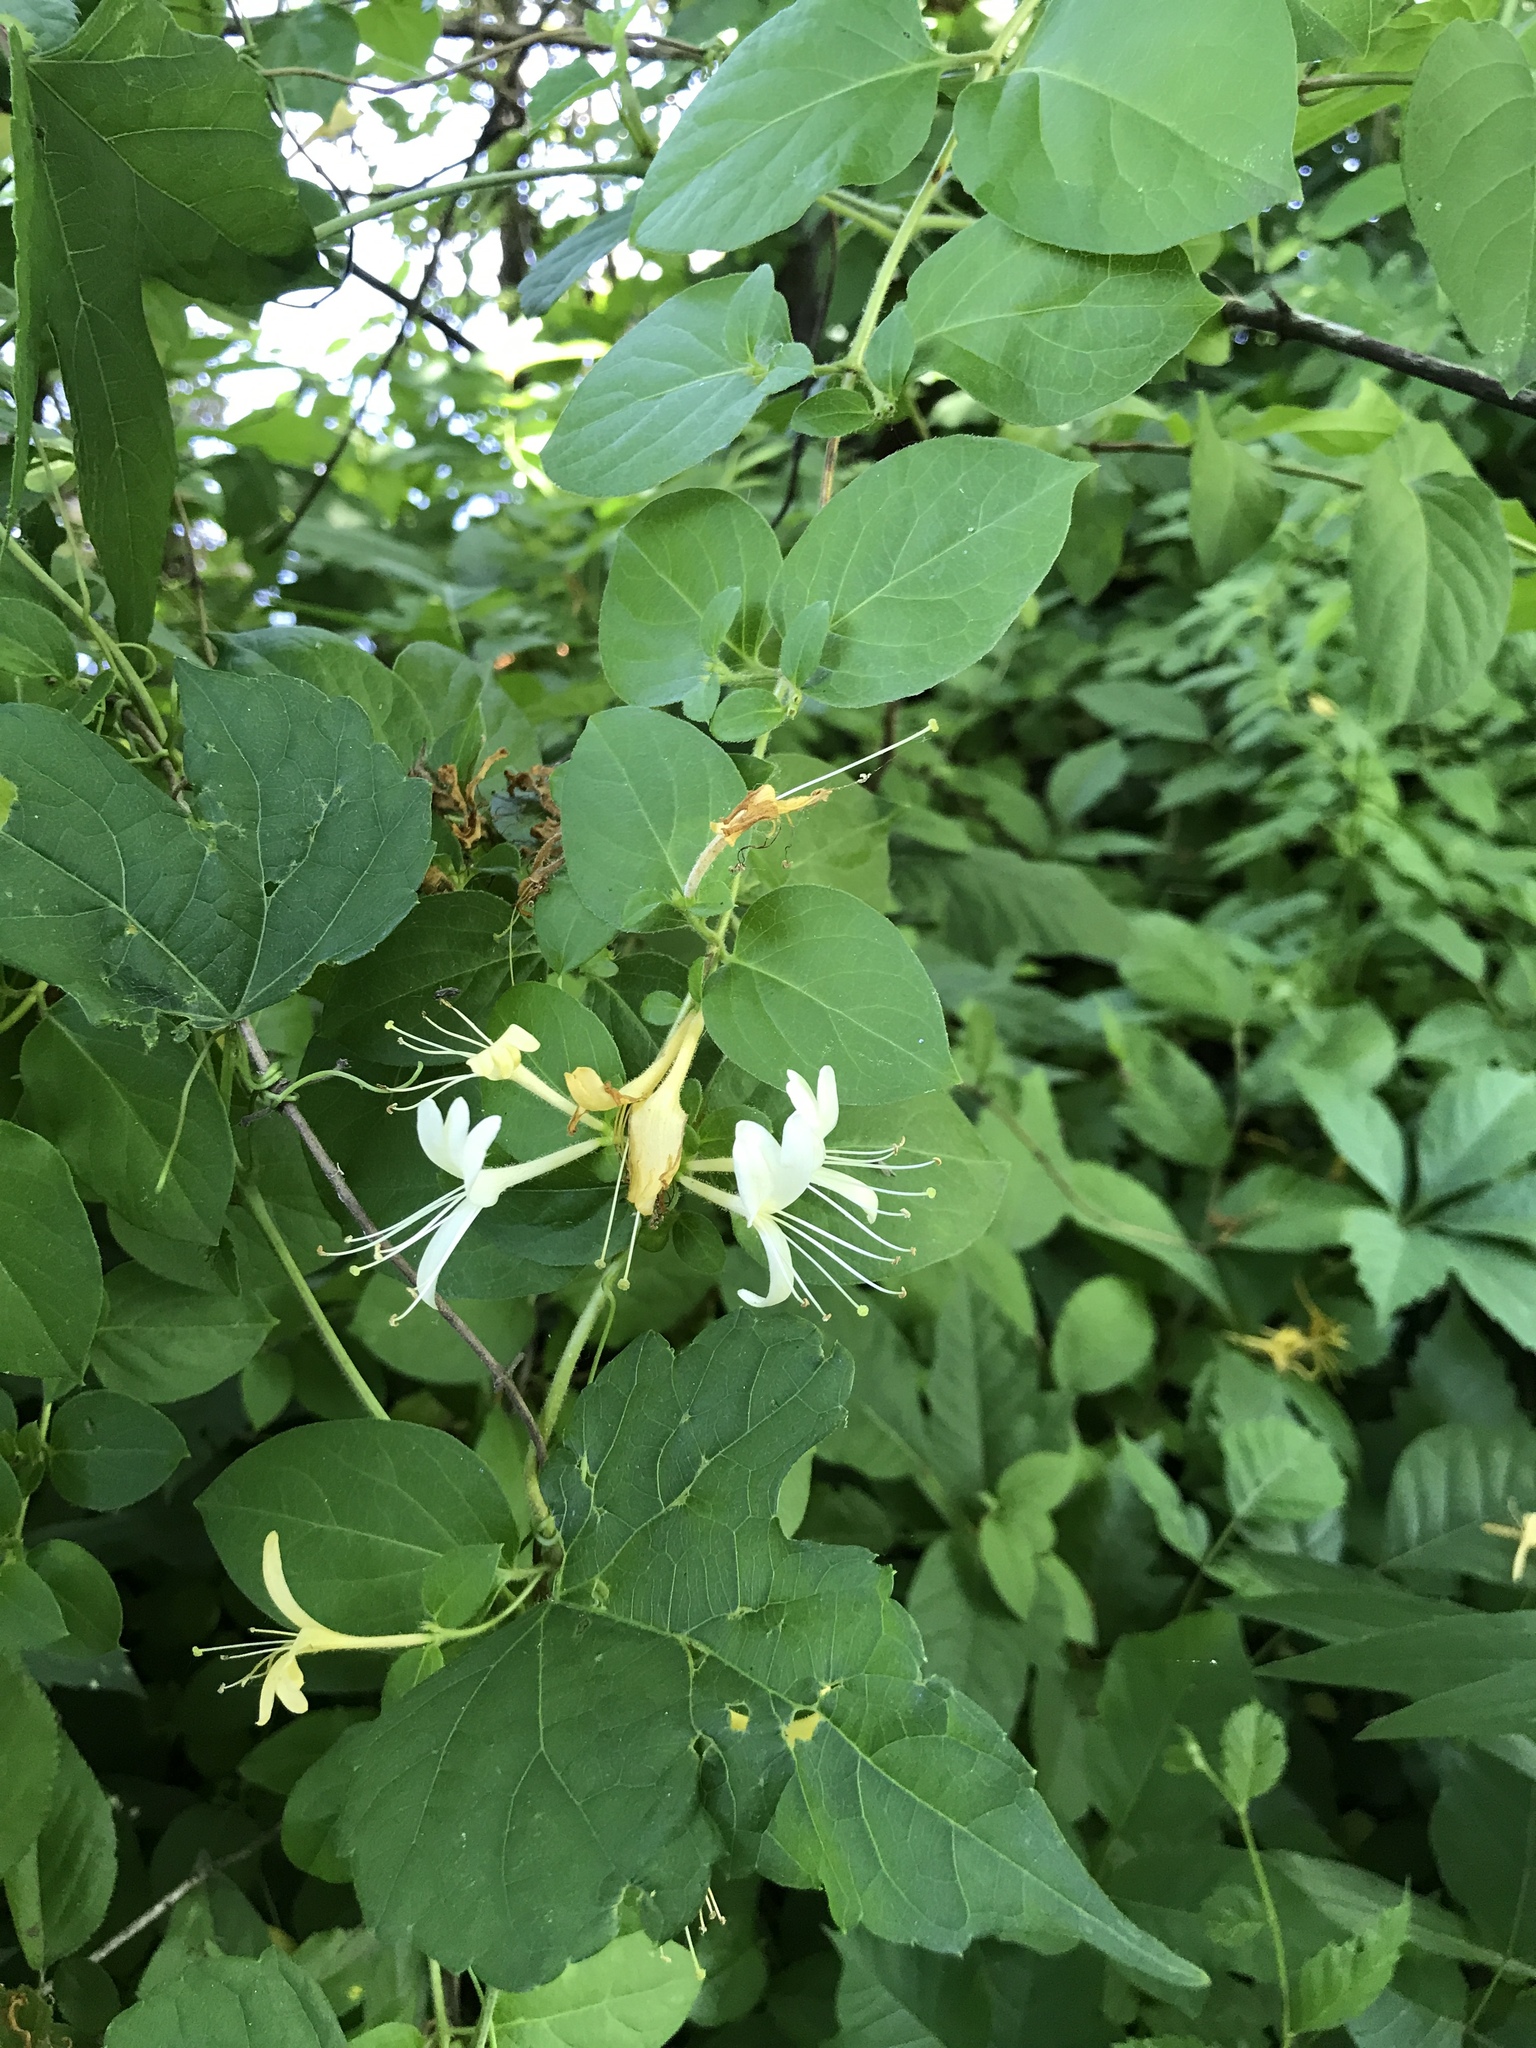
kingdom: Plantae
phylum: Tracheophyta
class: Magnoliopsida
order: Dipsacales
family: Caprifoliaceae
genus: Lonicera
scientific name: Lonicera japonica
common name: Japanese honeysuckle
